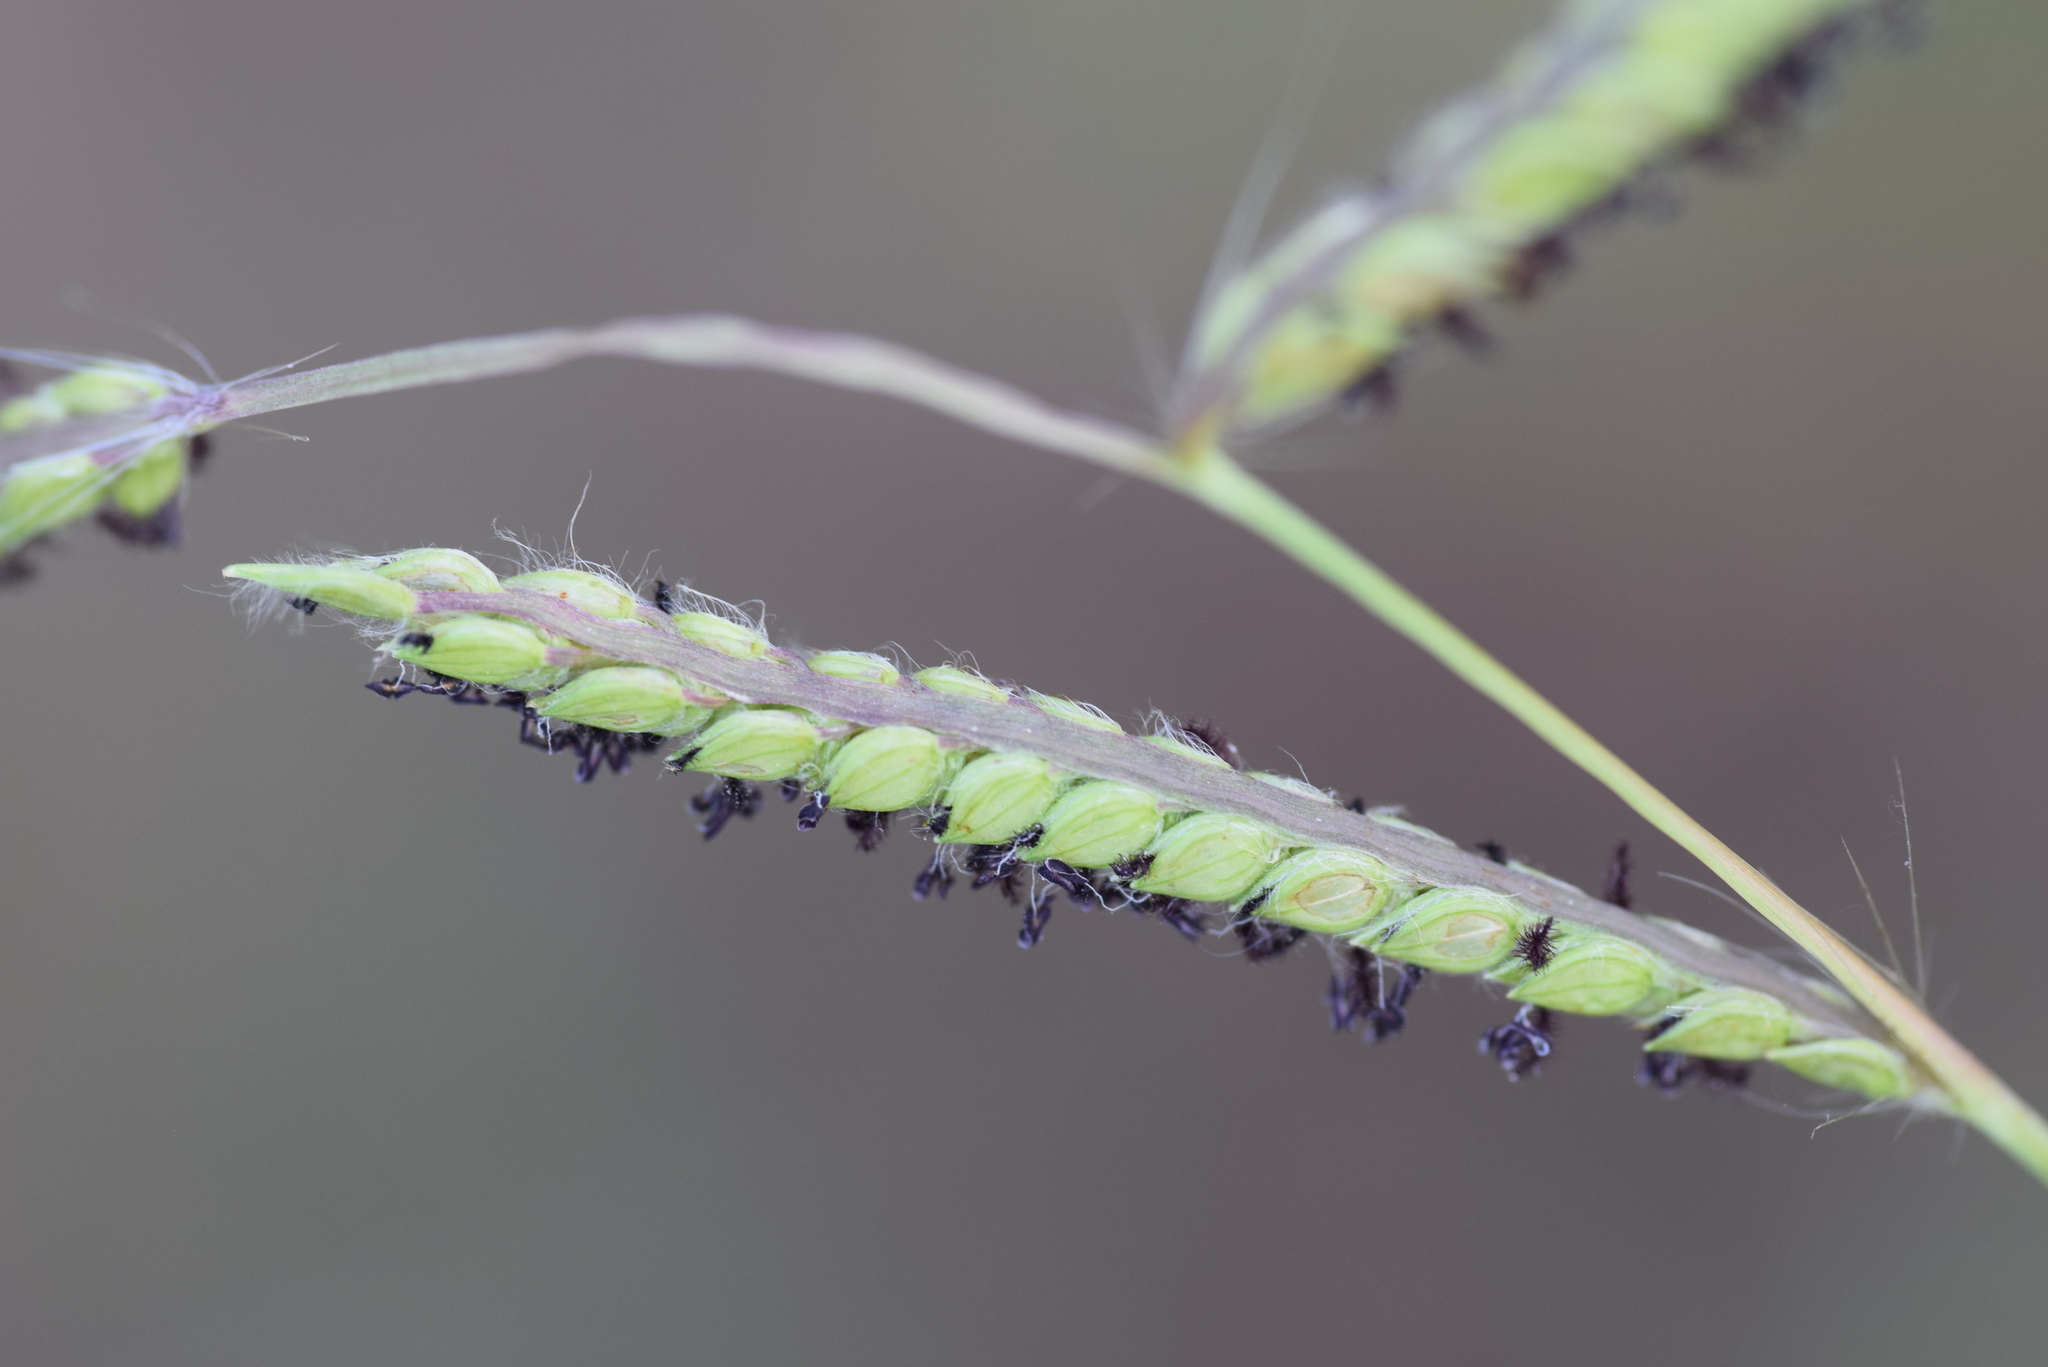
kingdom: Plantae
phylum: Tracheophyta
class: Liliopsida
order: Poales
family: Poaceae
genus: Paspalum
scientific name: Paspalum dilatatum
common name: Dallisgrass
